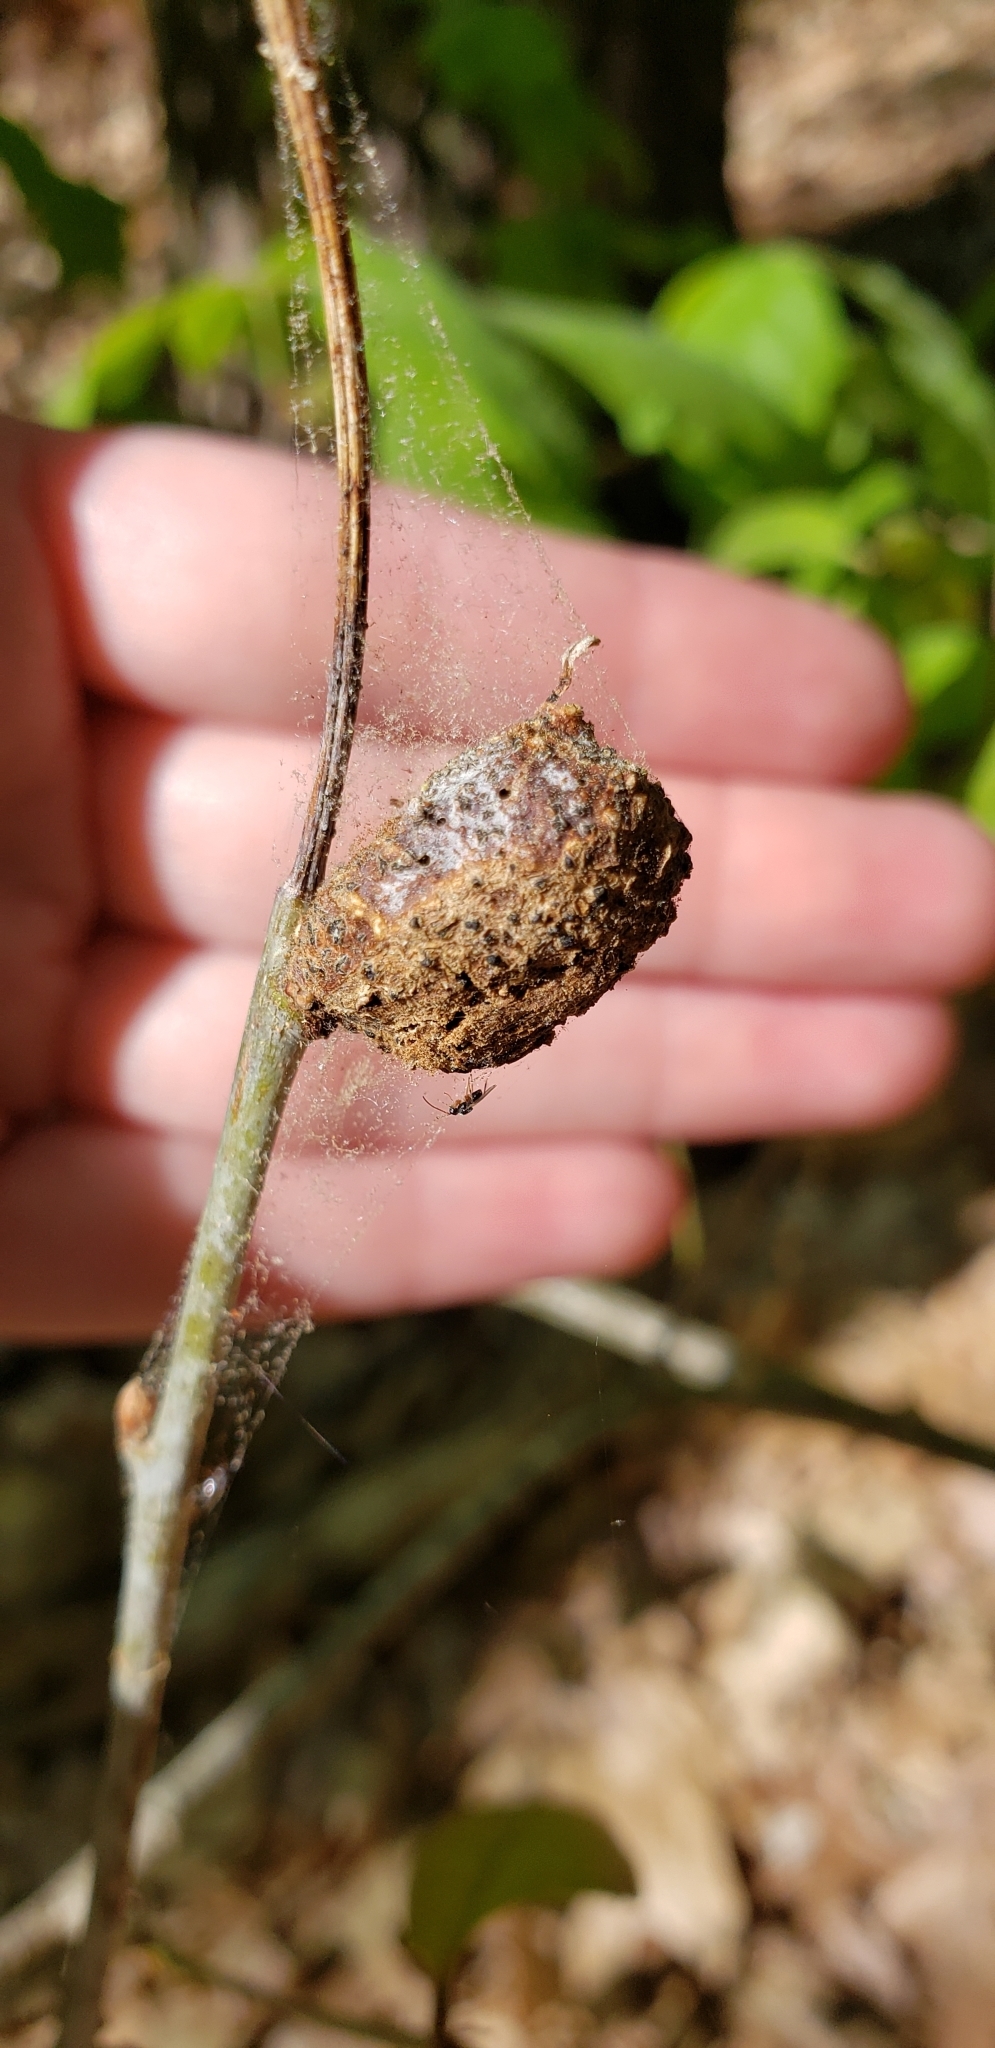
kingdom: Animalia
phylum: Arthropoda
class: Insecta
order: Hymenoptera
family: Cynipidae
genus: Neuroterus
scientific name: Neuroterus quercusbaccarum
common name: Common spangle gall
